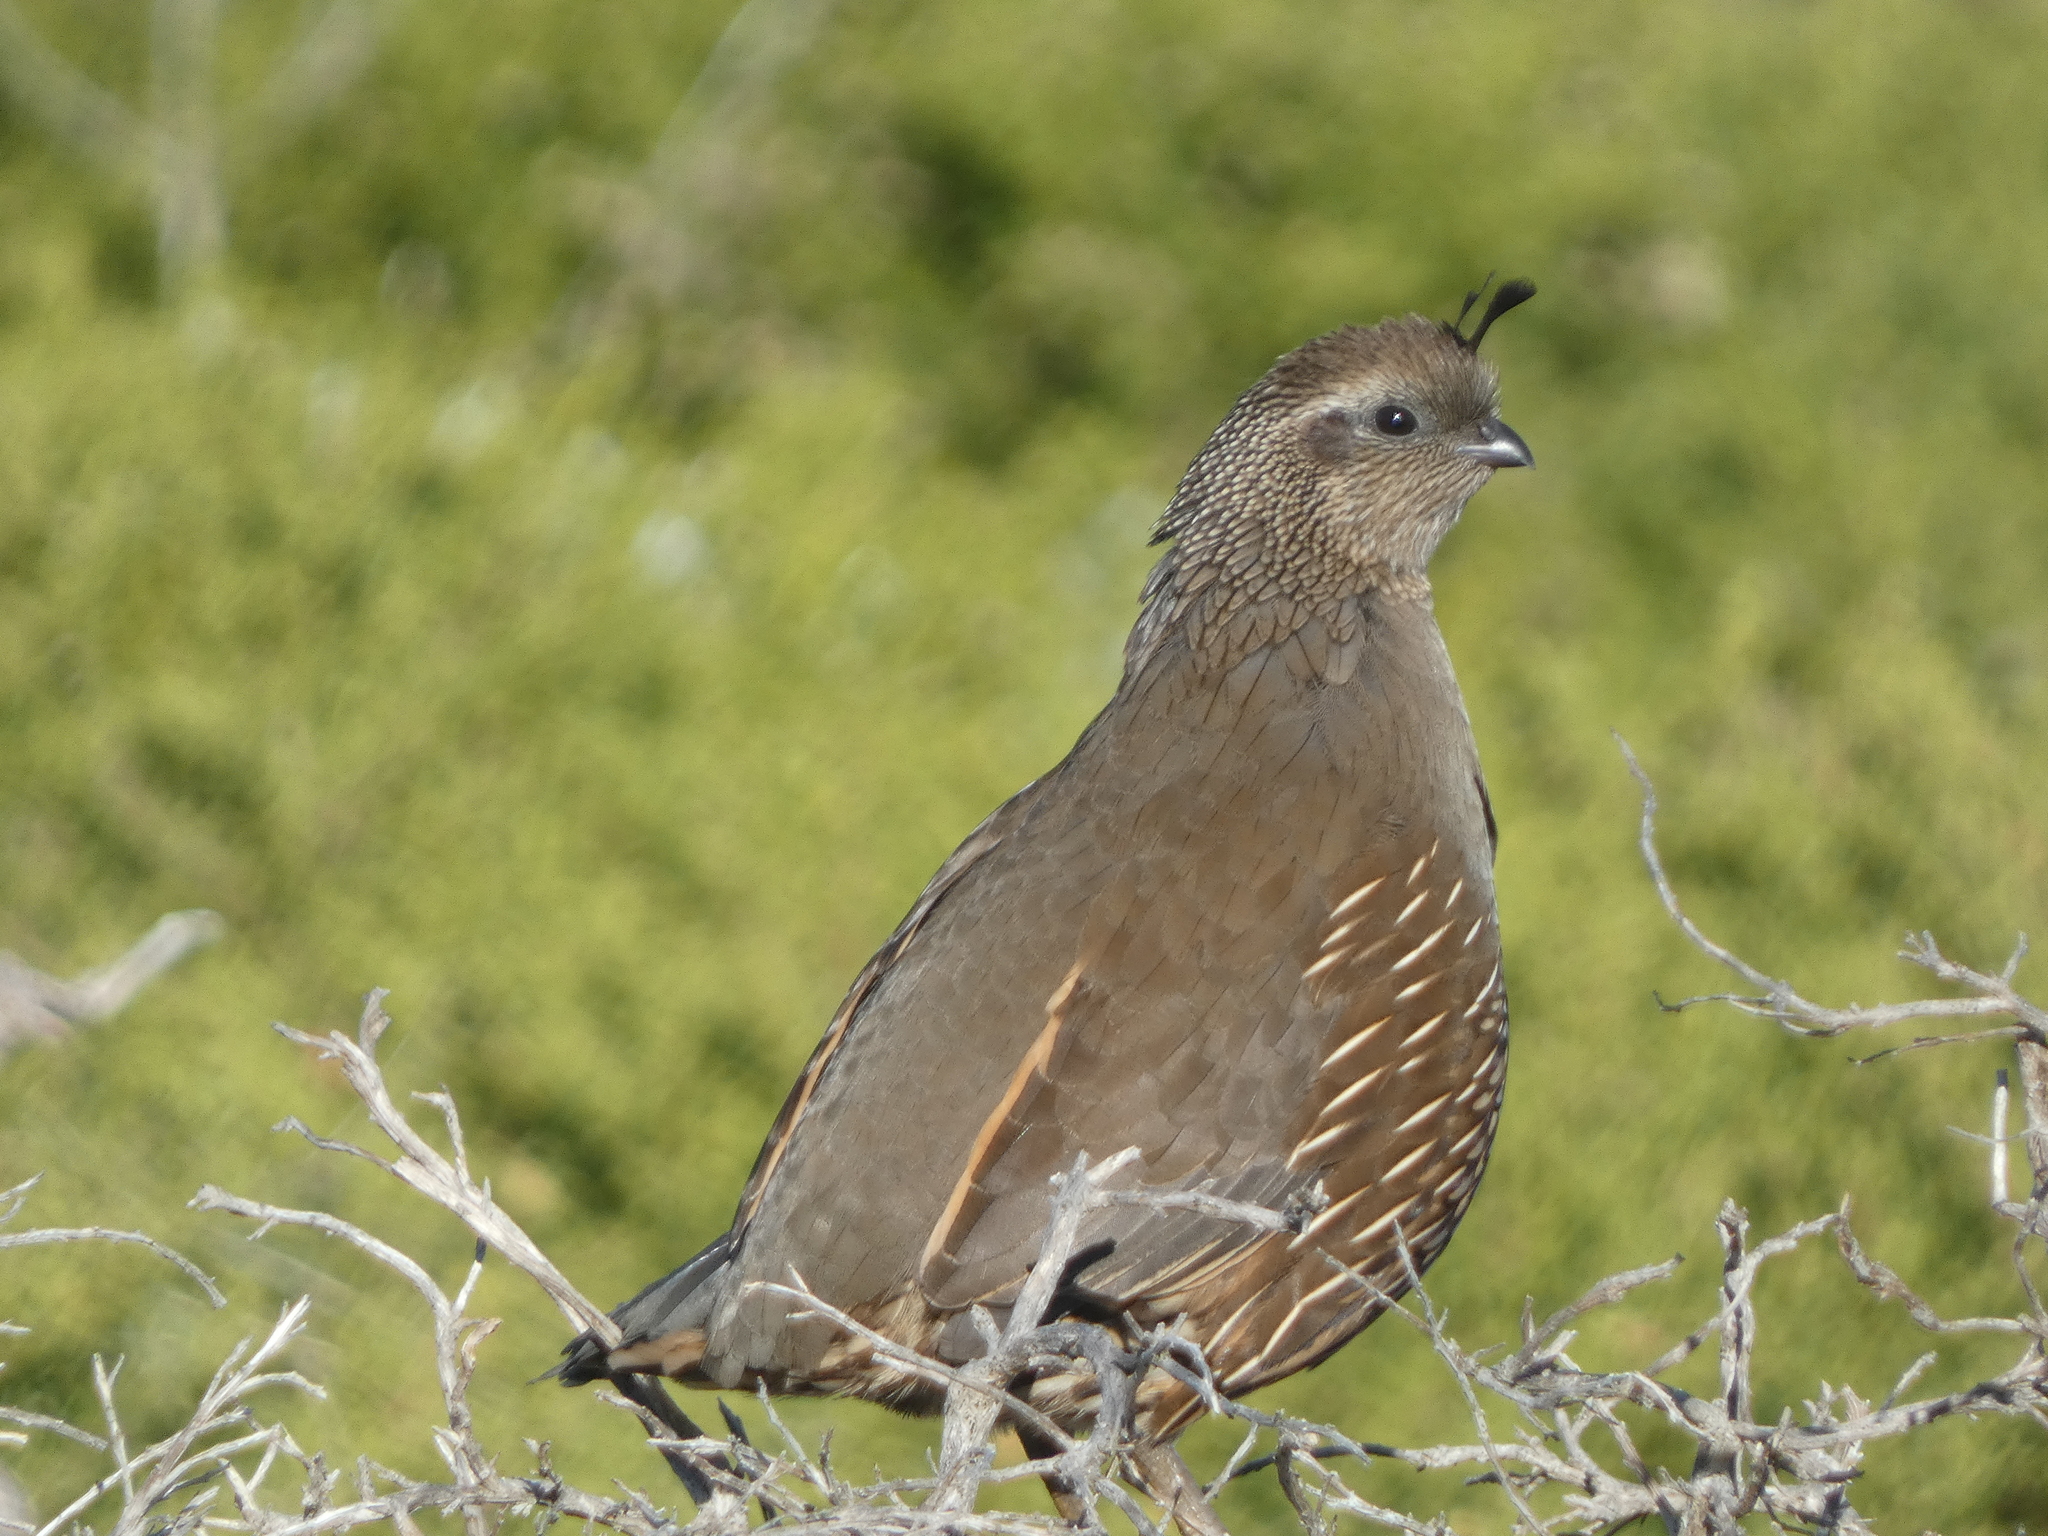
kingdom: Animalia
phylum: Chordata
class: Aves
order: Galliformes
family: Odontophoridae
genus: Callipepla
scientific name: Callipepla californica
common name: California quail
